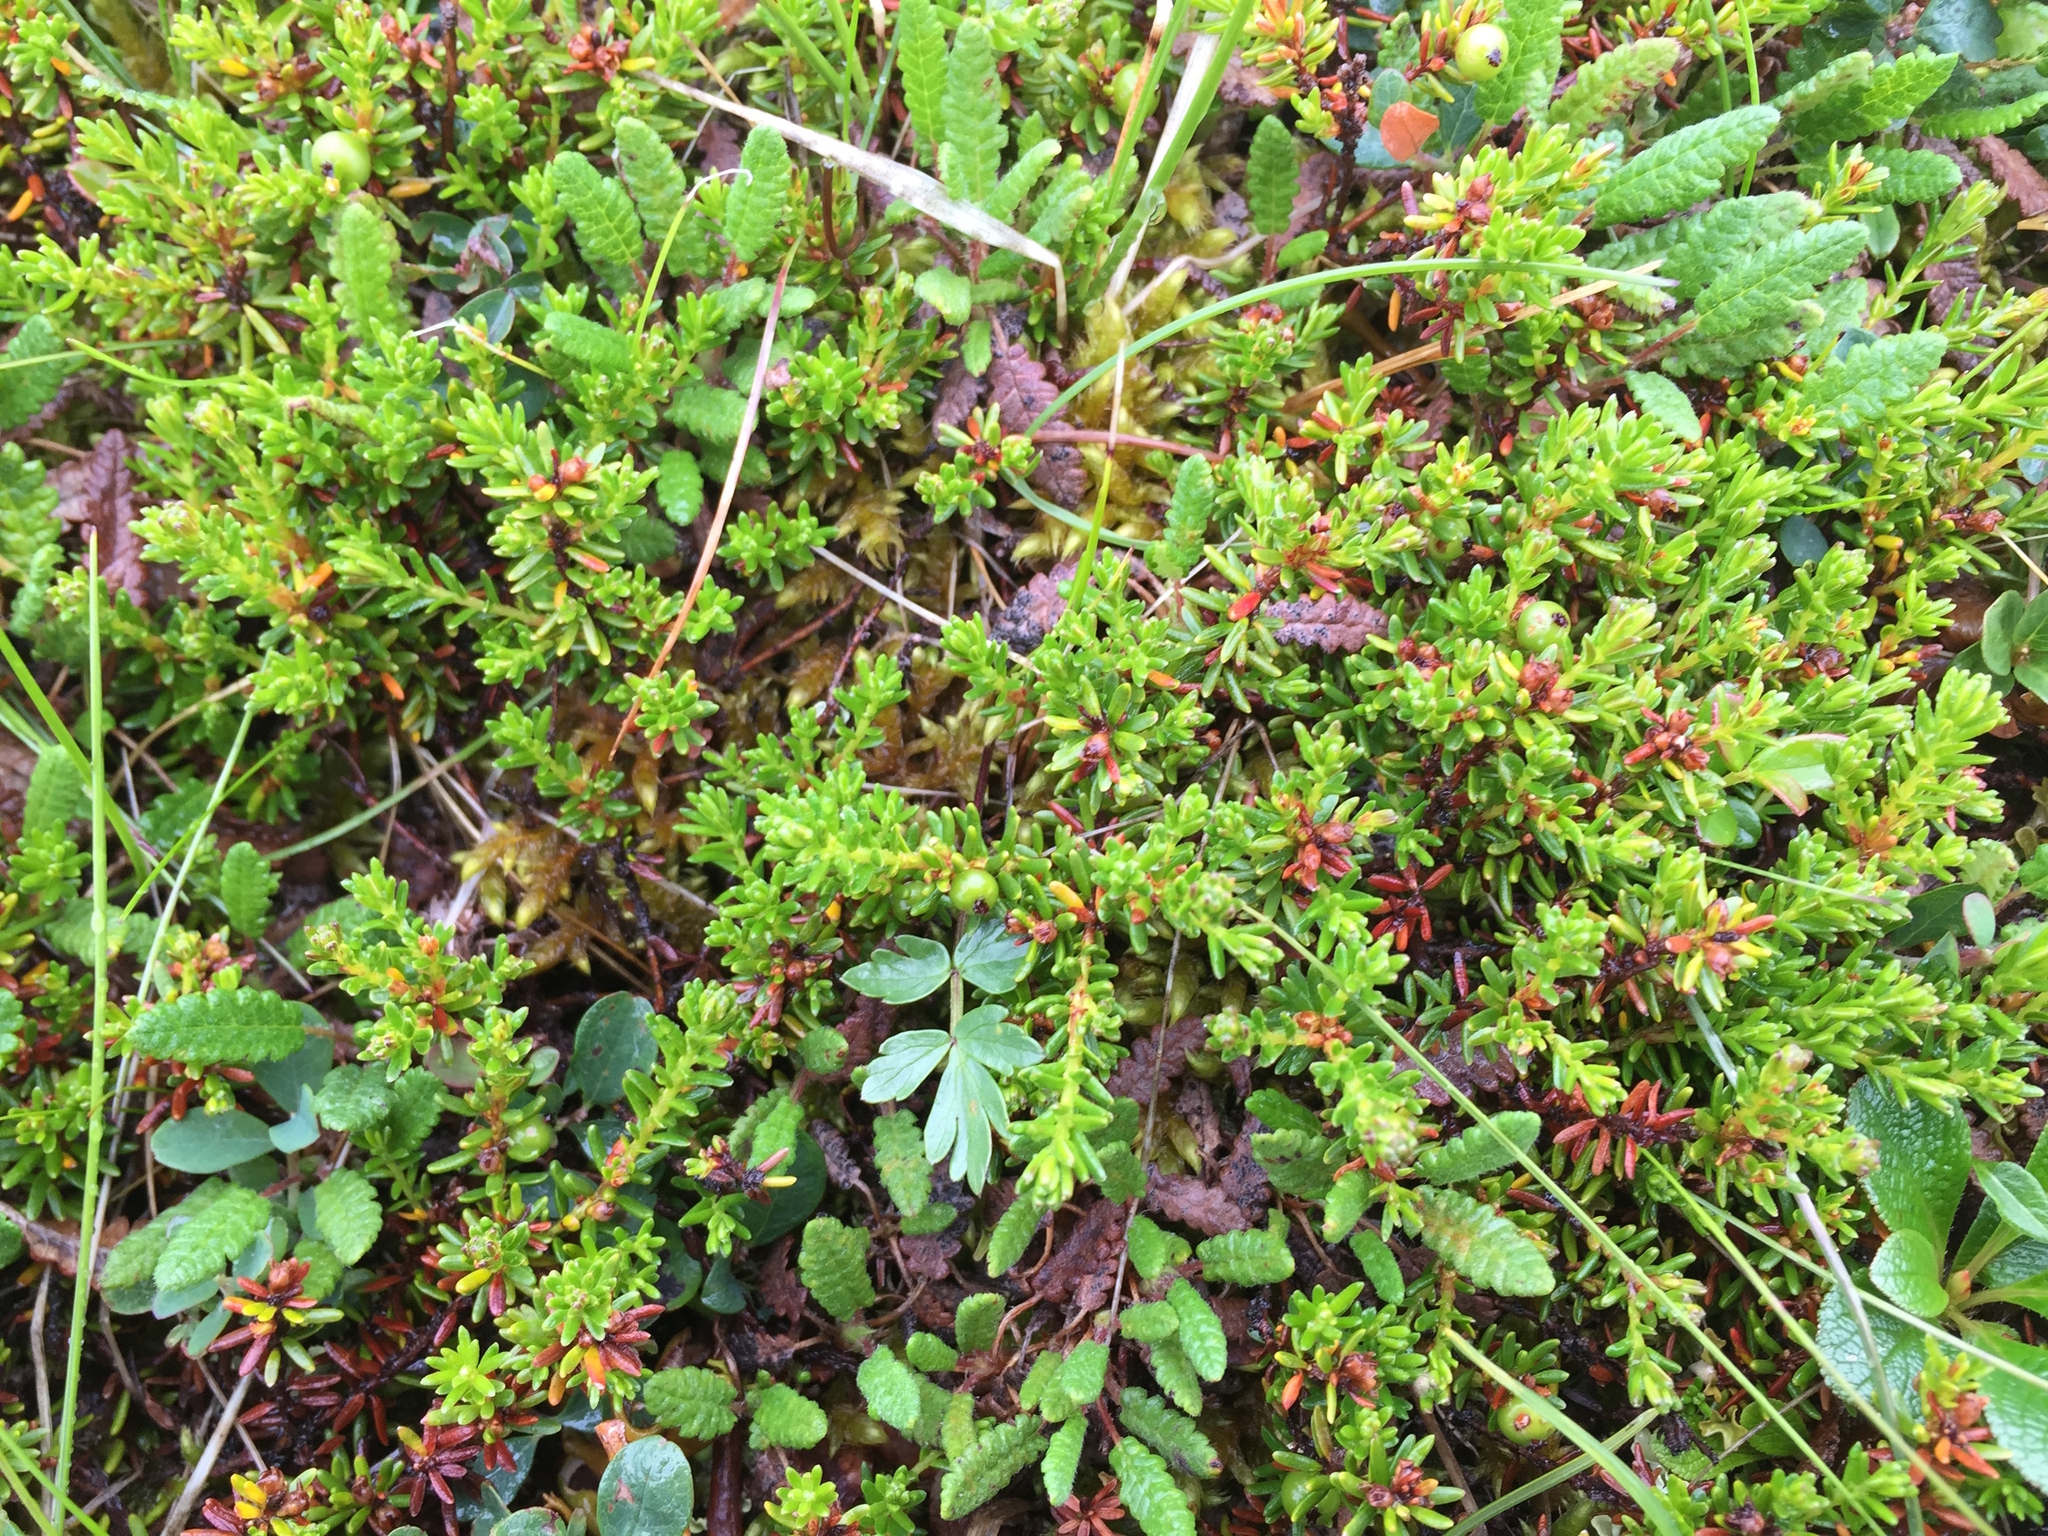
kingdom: Plantae
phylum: Tracheophyta
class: Magnoliopsida
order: Ericales
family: Ericaceae
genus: Empetrum
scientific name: Empetrum nigrum
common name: Black crowberry
